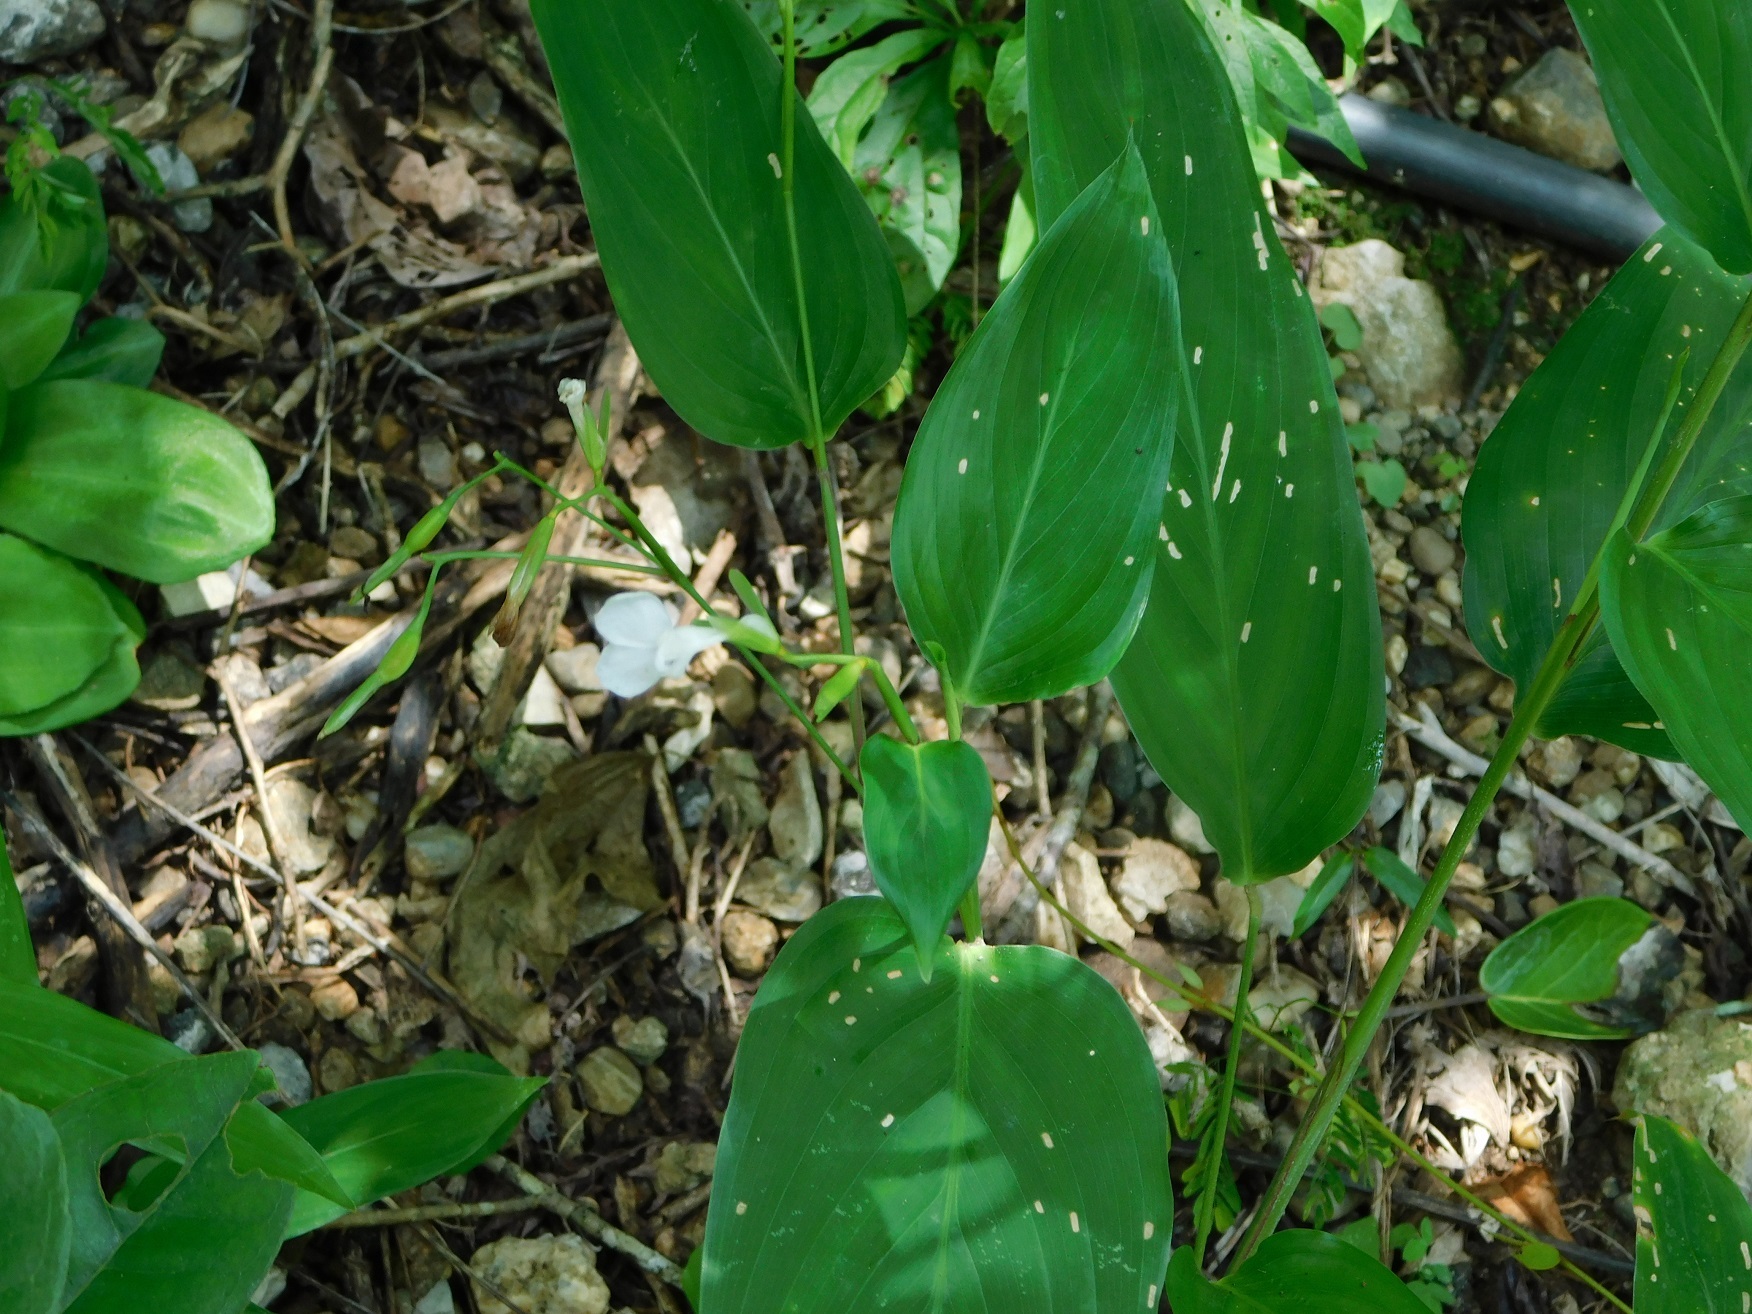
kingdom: Plantae
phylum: Tracheophyta
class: Liliopsida
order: Zingiberales
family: Marantaceae
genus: Maranta
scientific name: Maranta arundinacea
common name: Arrowroot
